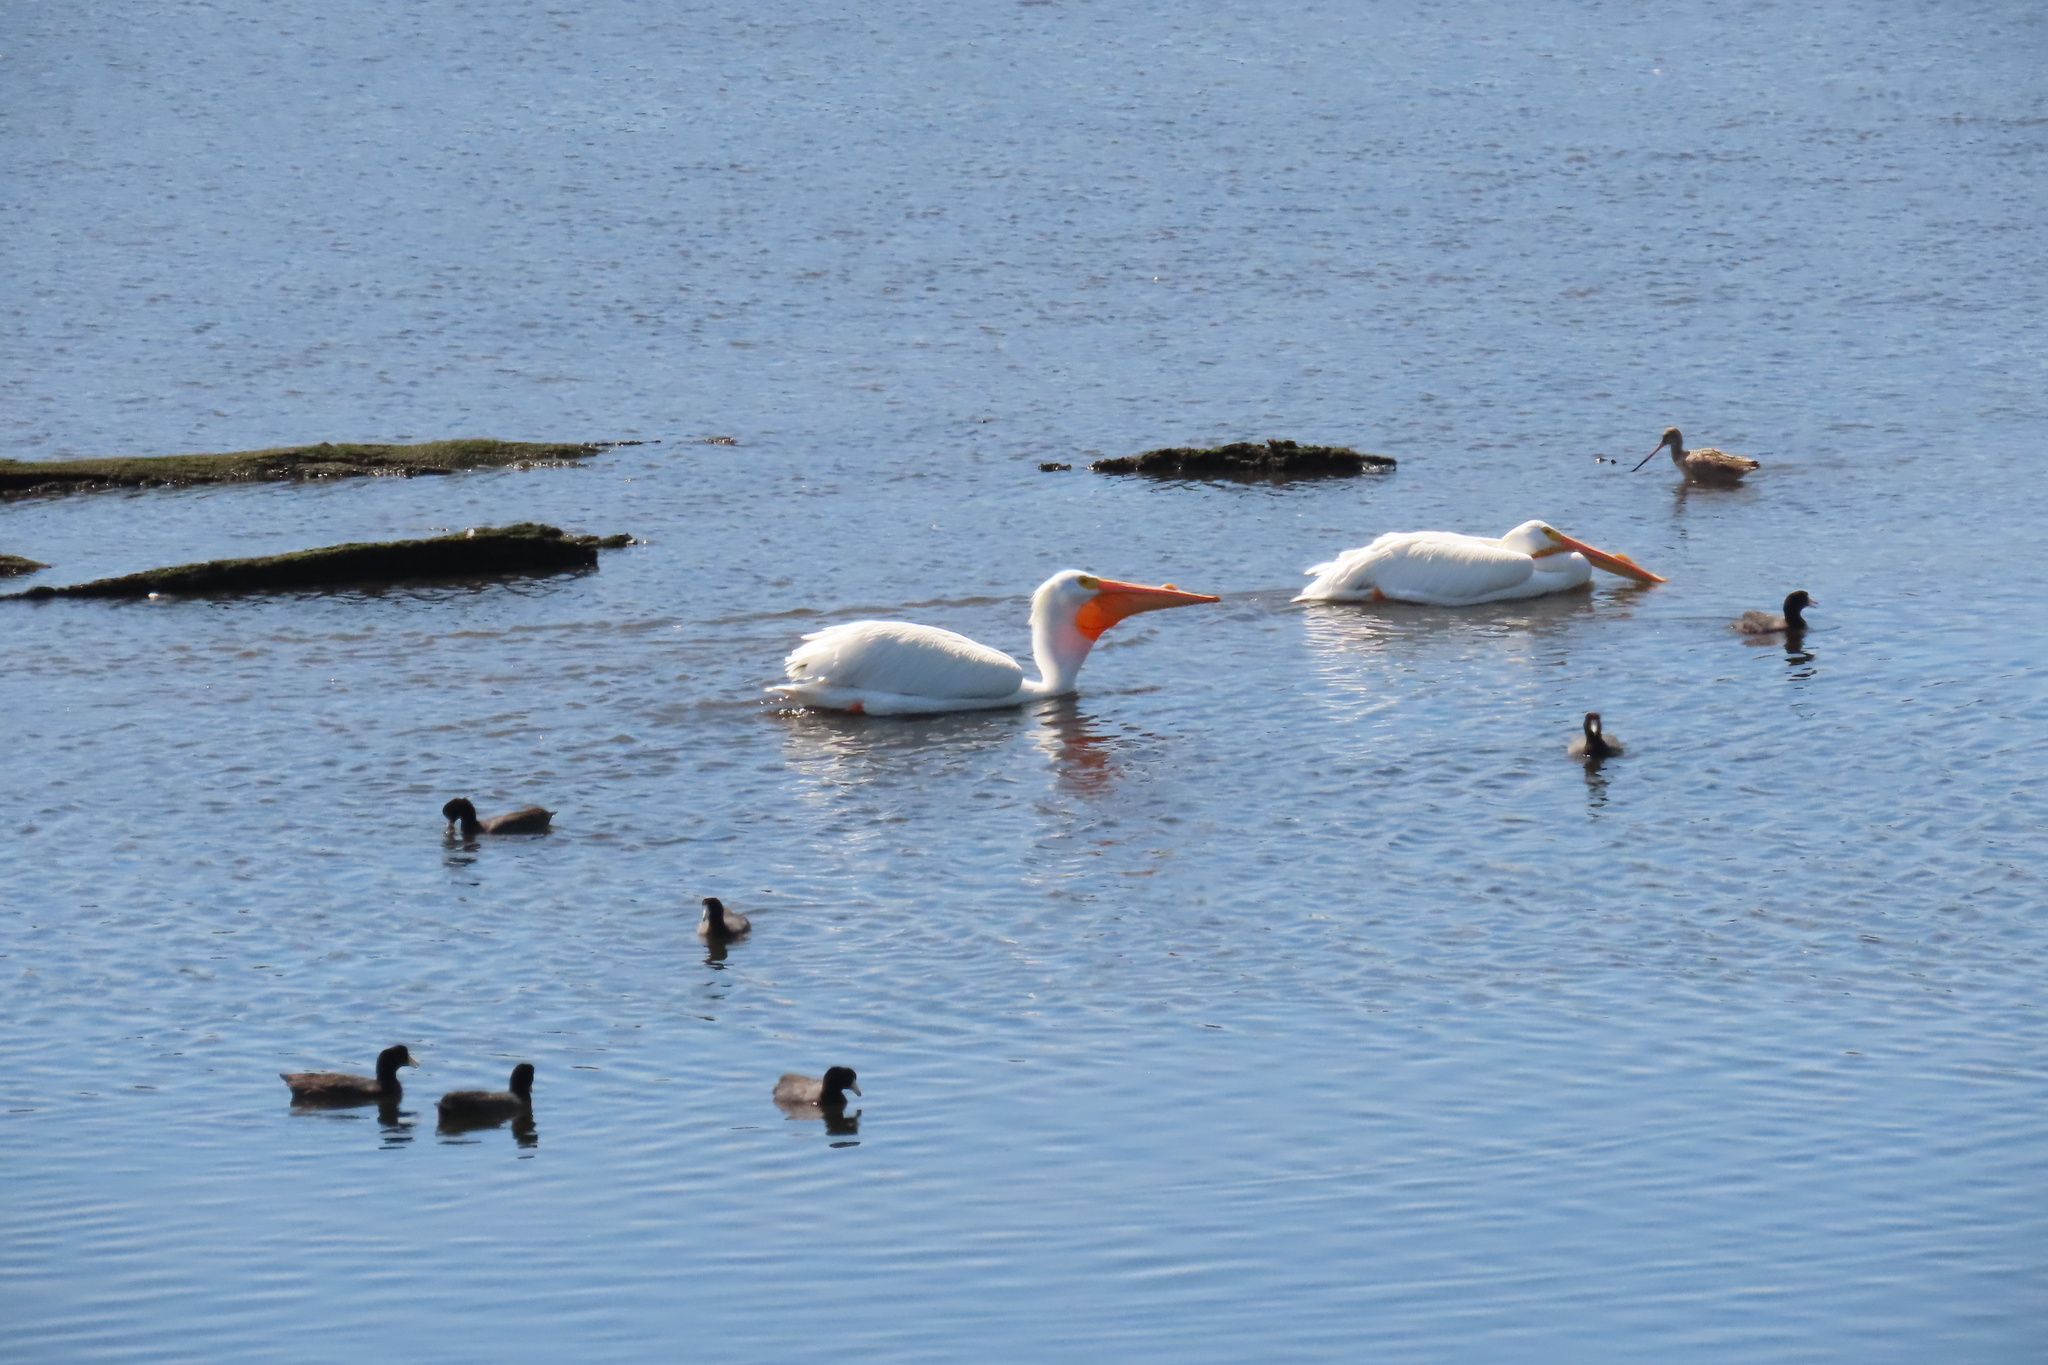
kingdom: Animalia
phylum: Chordata
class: Aves
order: Pelecaniformes
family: Pelecanidae
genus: Pelecanus
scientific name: Pelecanus erythrorhynchos
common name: American white pelican
